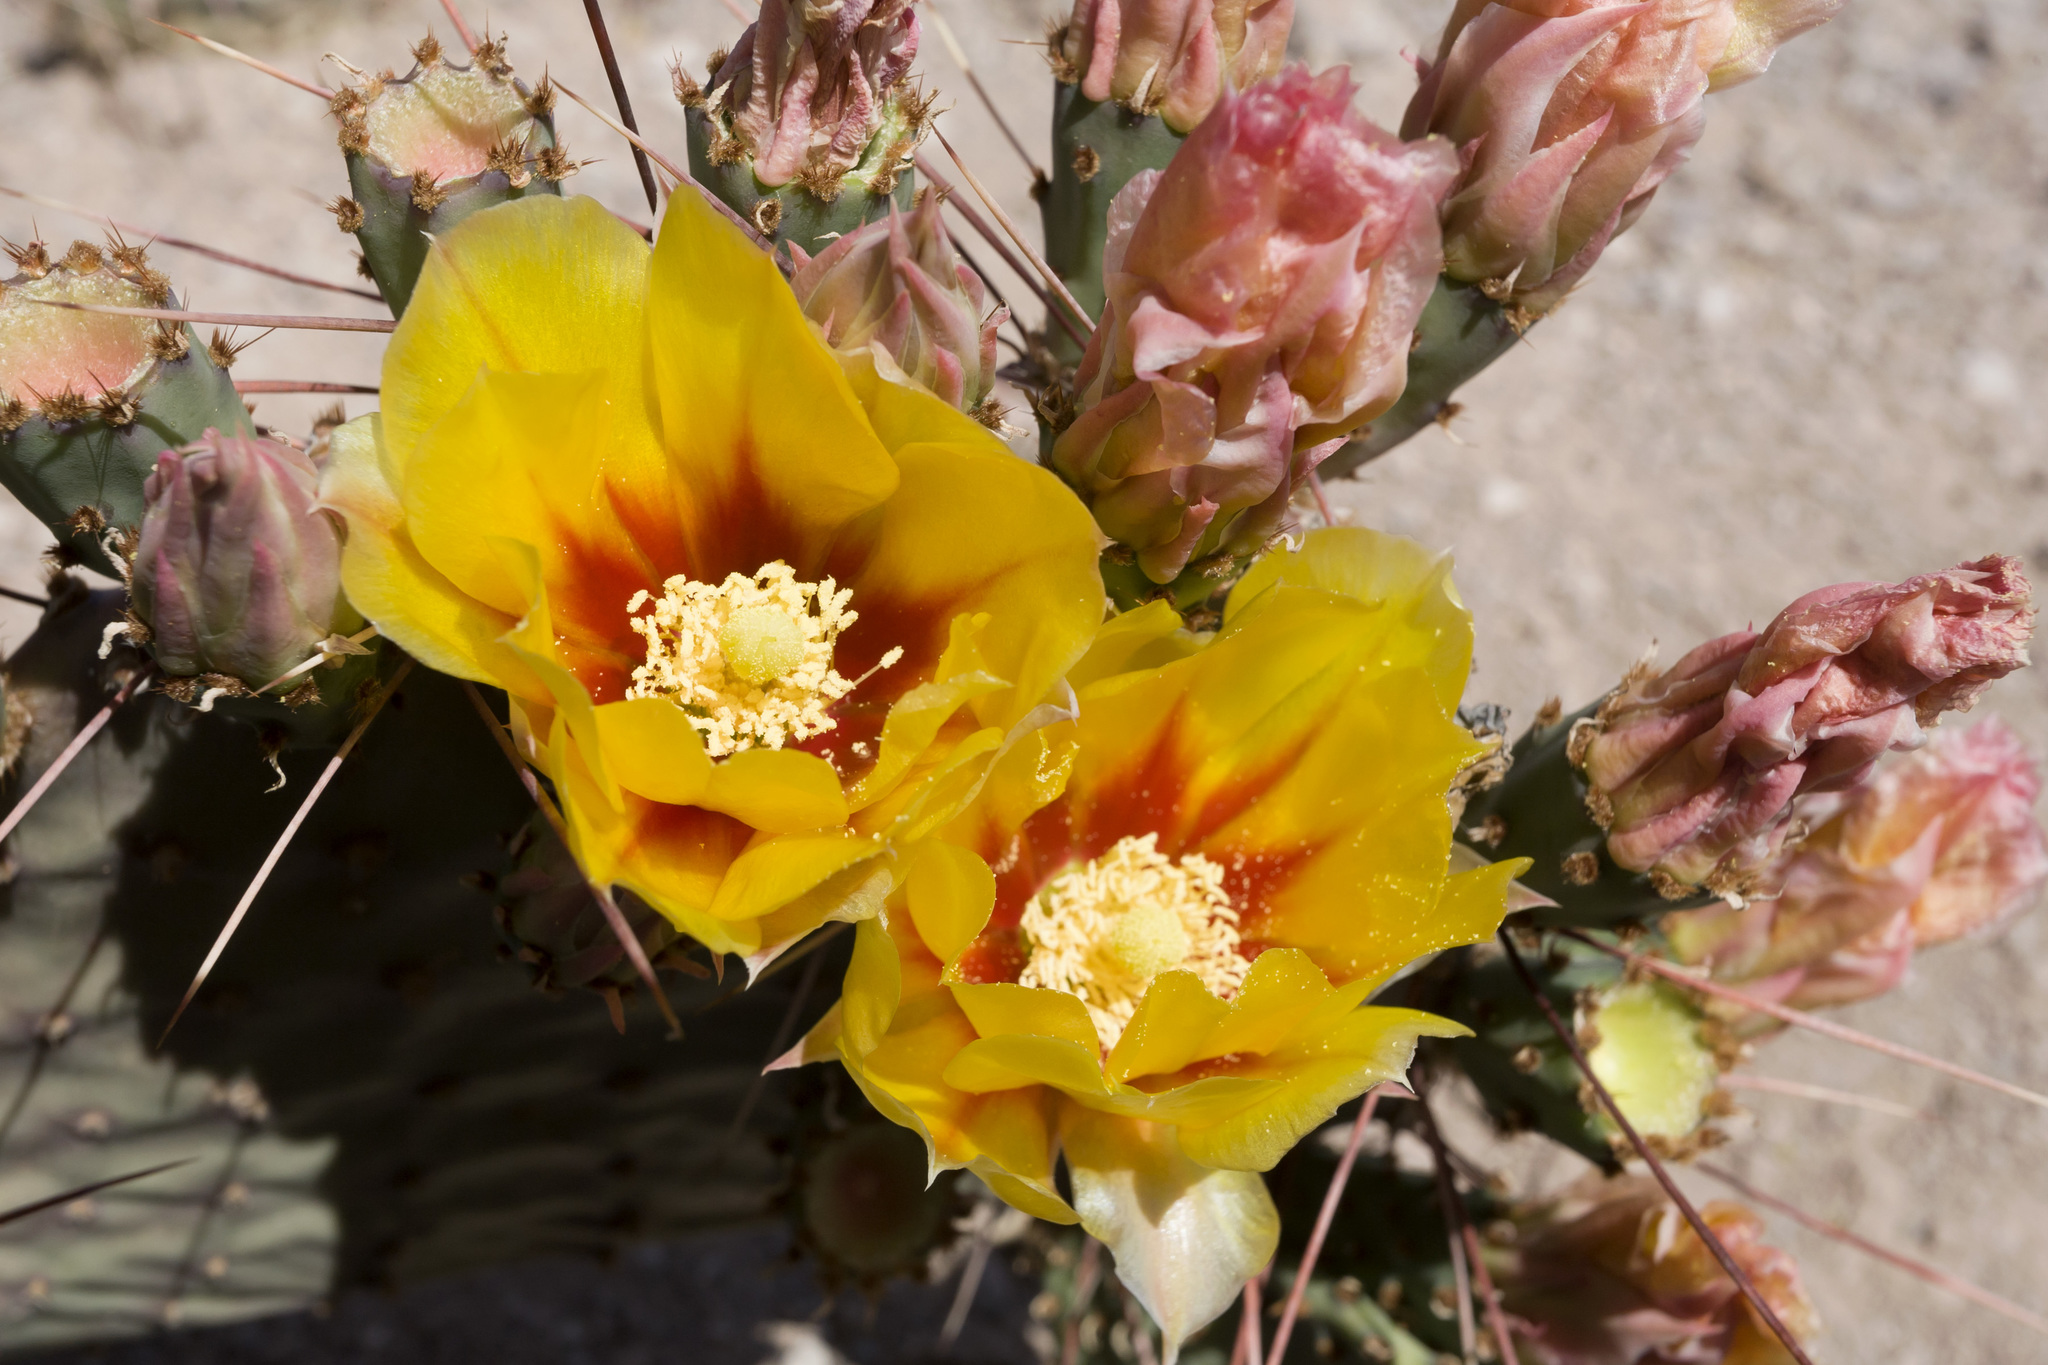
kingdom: Plantae
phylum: Tracheophyta
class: Magnoliopsida
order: Caryophyllales
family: Cactaceae
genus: Opuntia
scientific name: Opuntia macrocentra
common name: Purple prickly-pear
